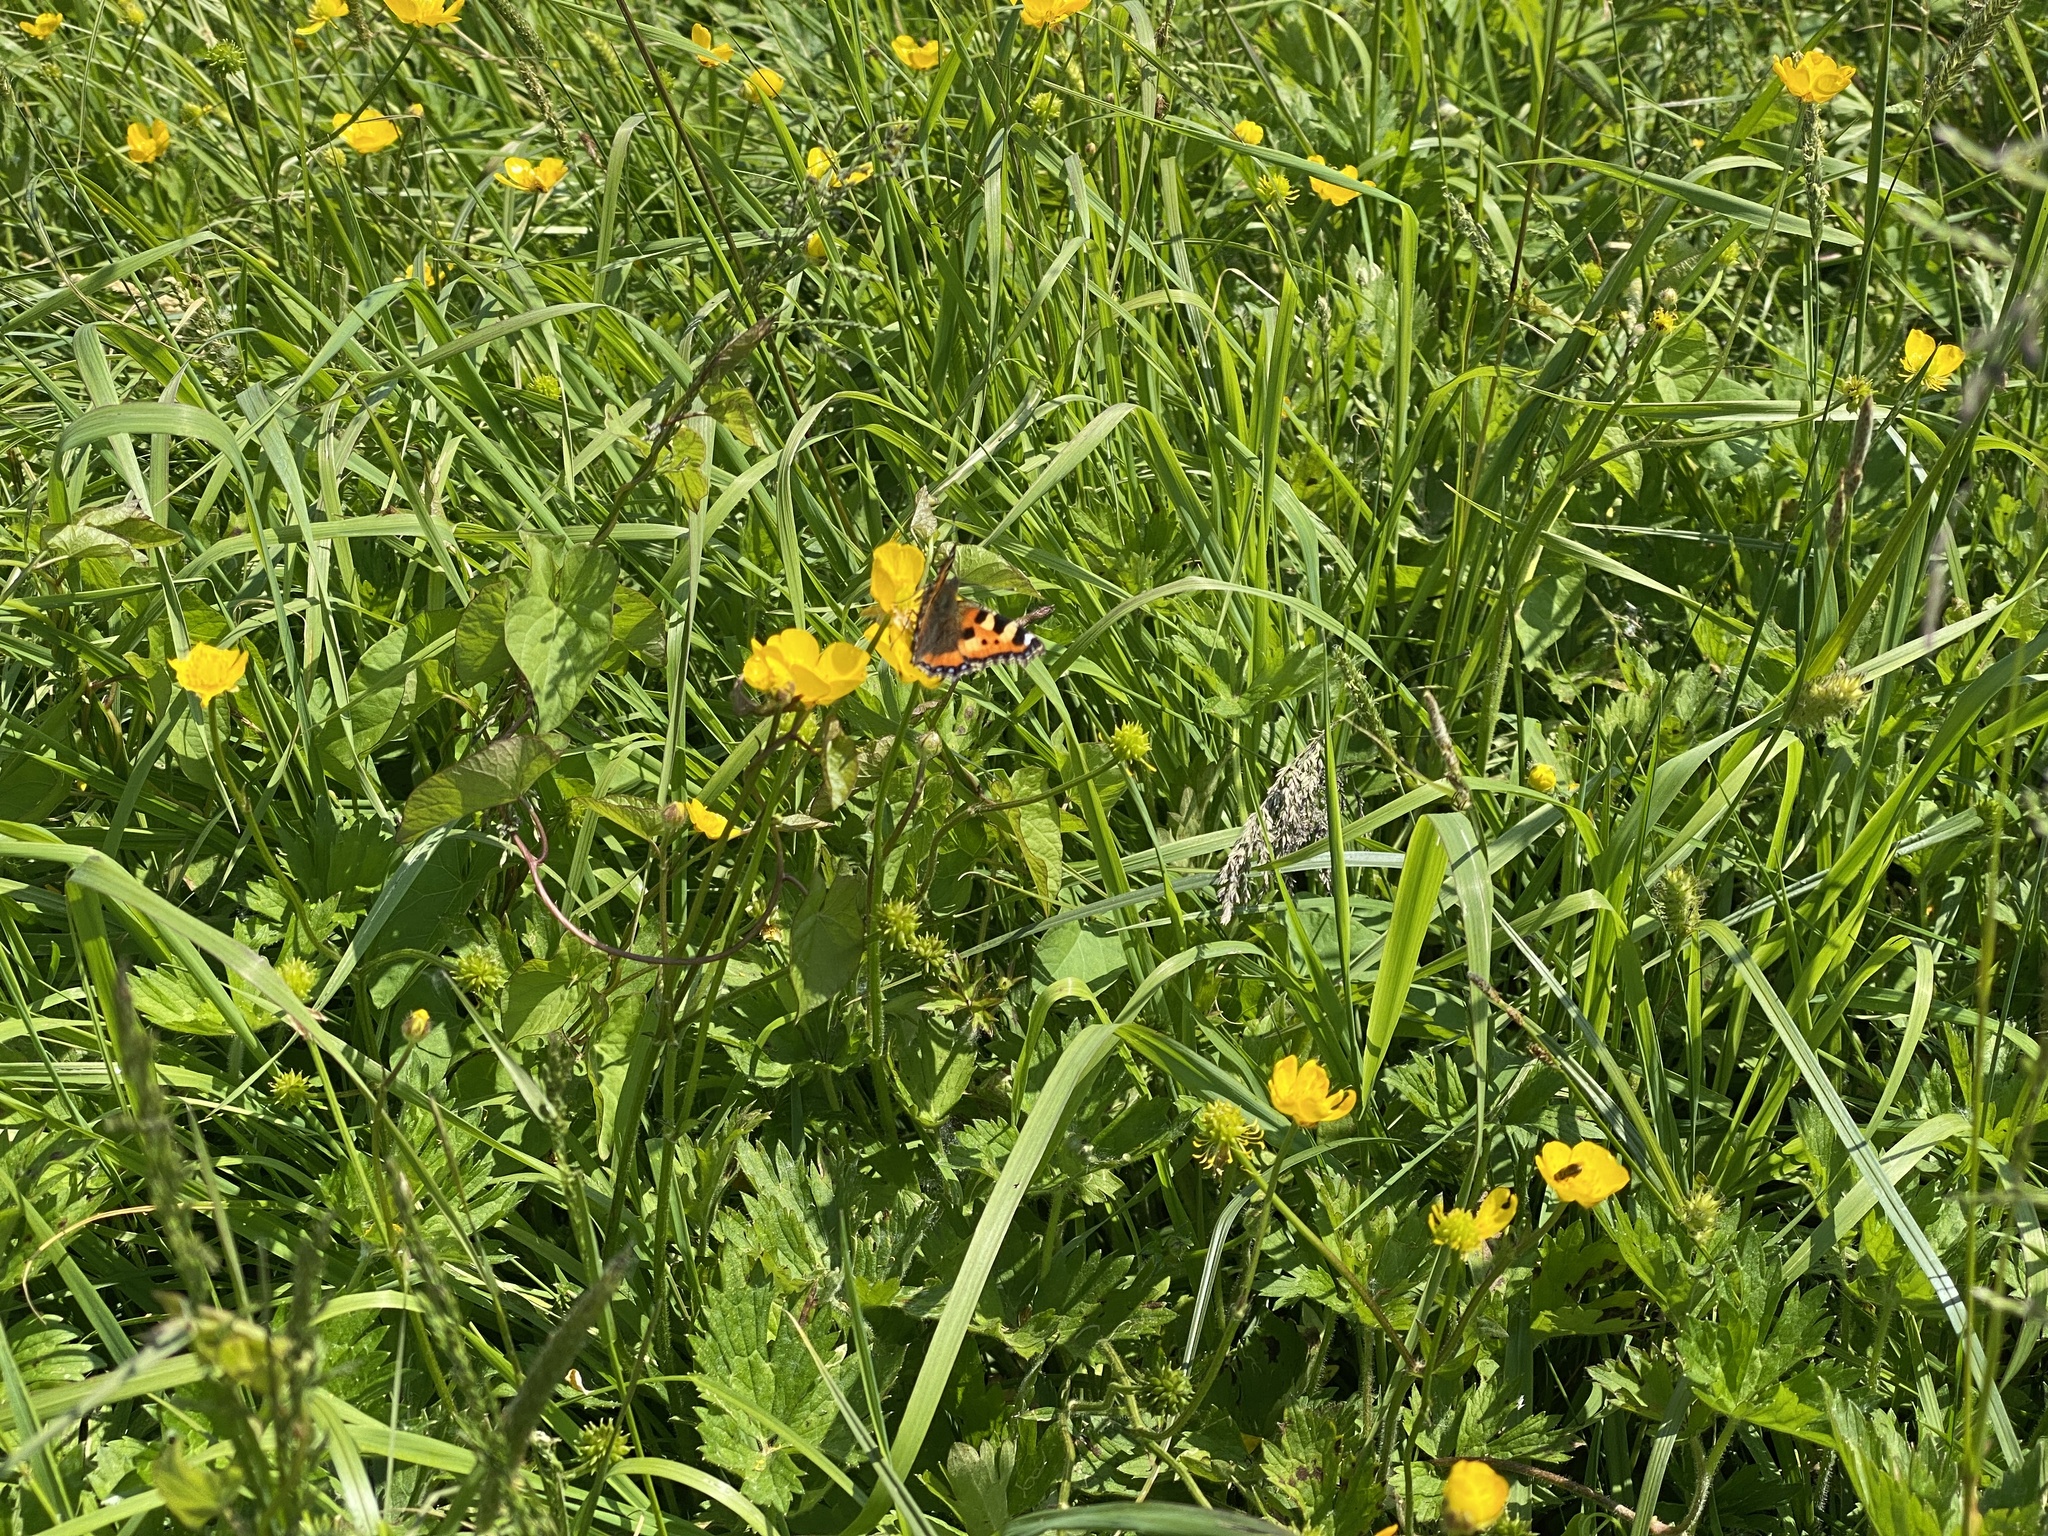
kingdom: Animalia
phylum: Arthropoda
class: Insecta
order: Lepidoptera
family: Nymphalidae
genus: Aglais
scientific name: Aglais urticae
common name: Small tortoiseshell
